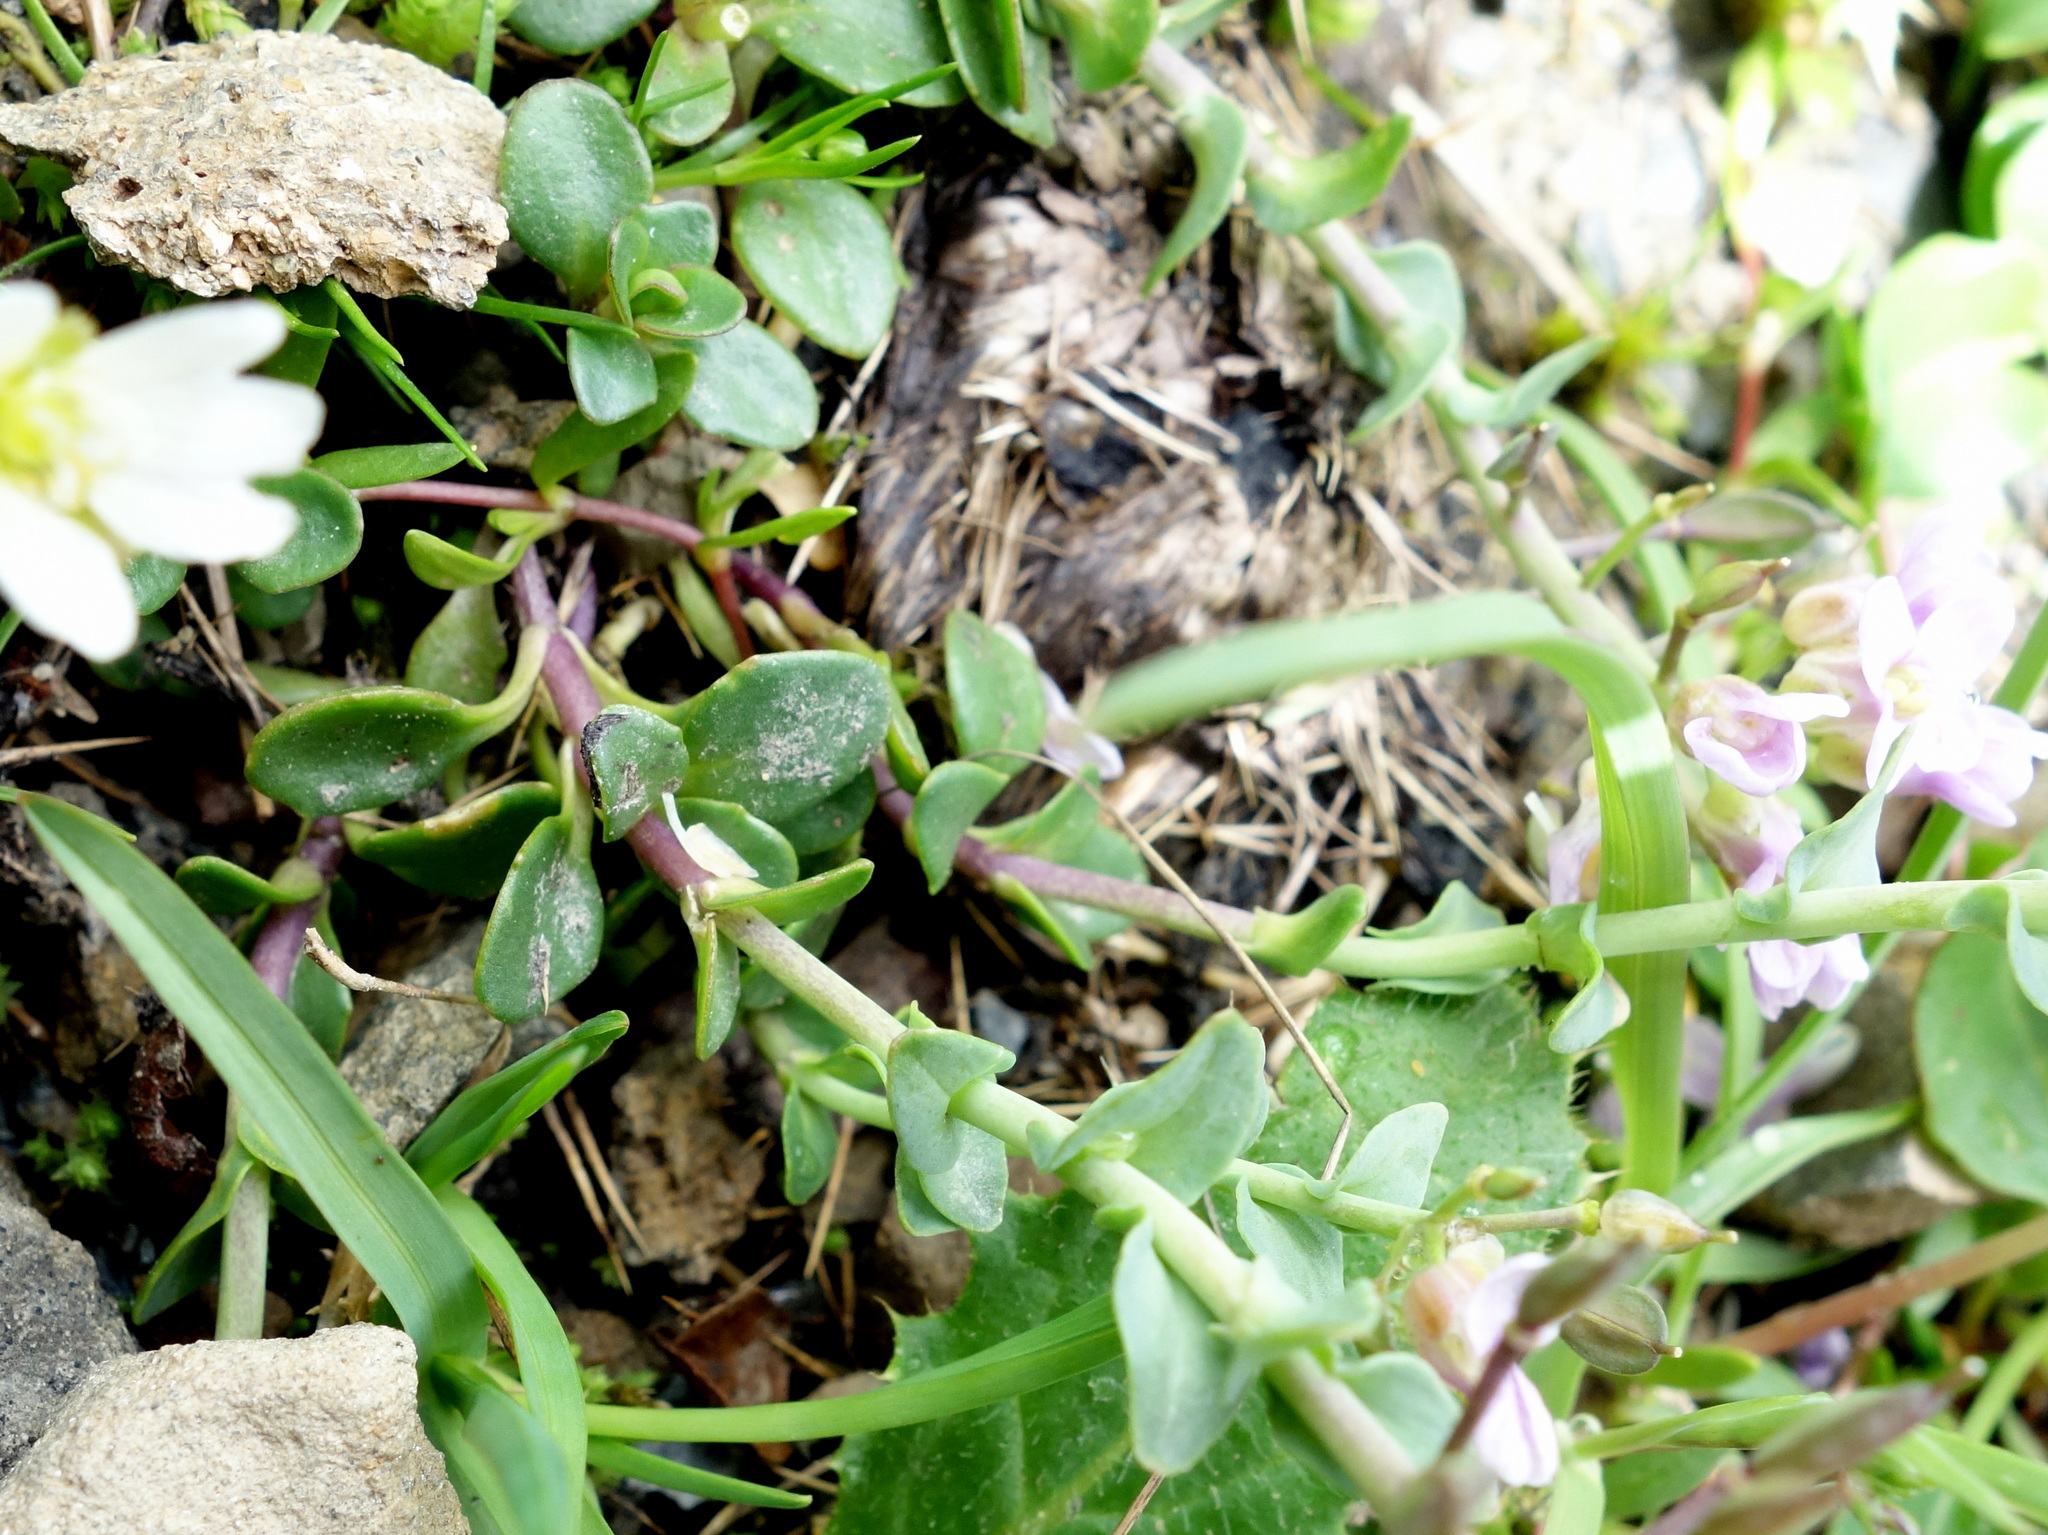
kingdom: Plantae
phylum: Tracheophyta
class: Magnoliopsida
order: Brassicales
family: Brassicaceae
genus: Noccaea
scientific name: Noccaea rotundifolia
